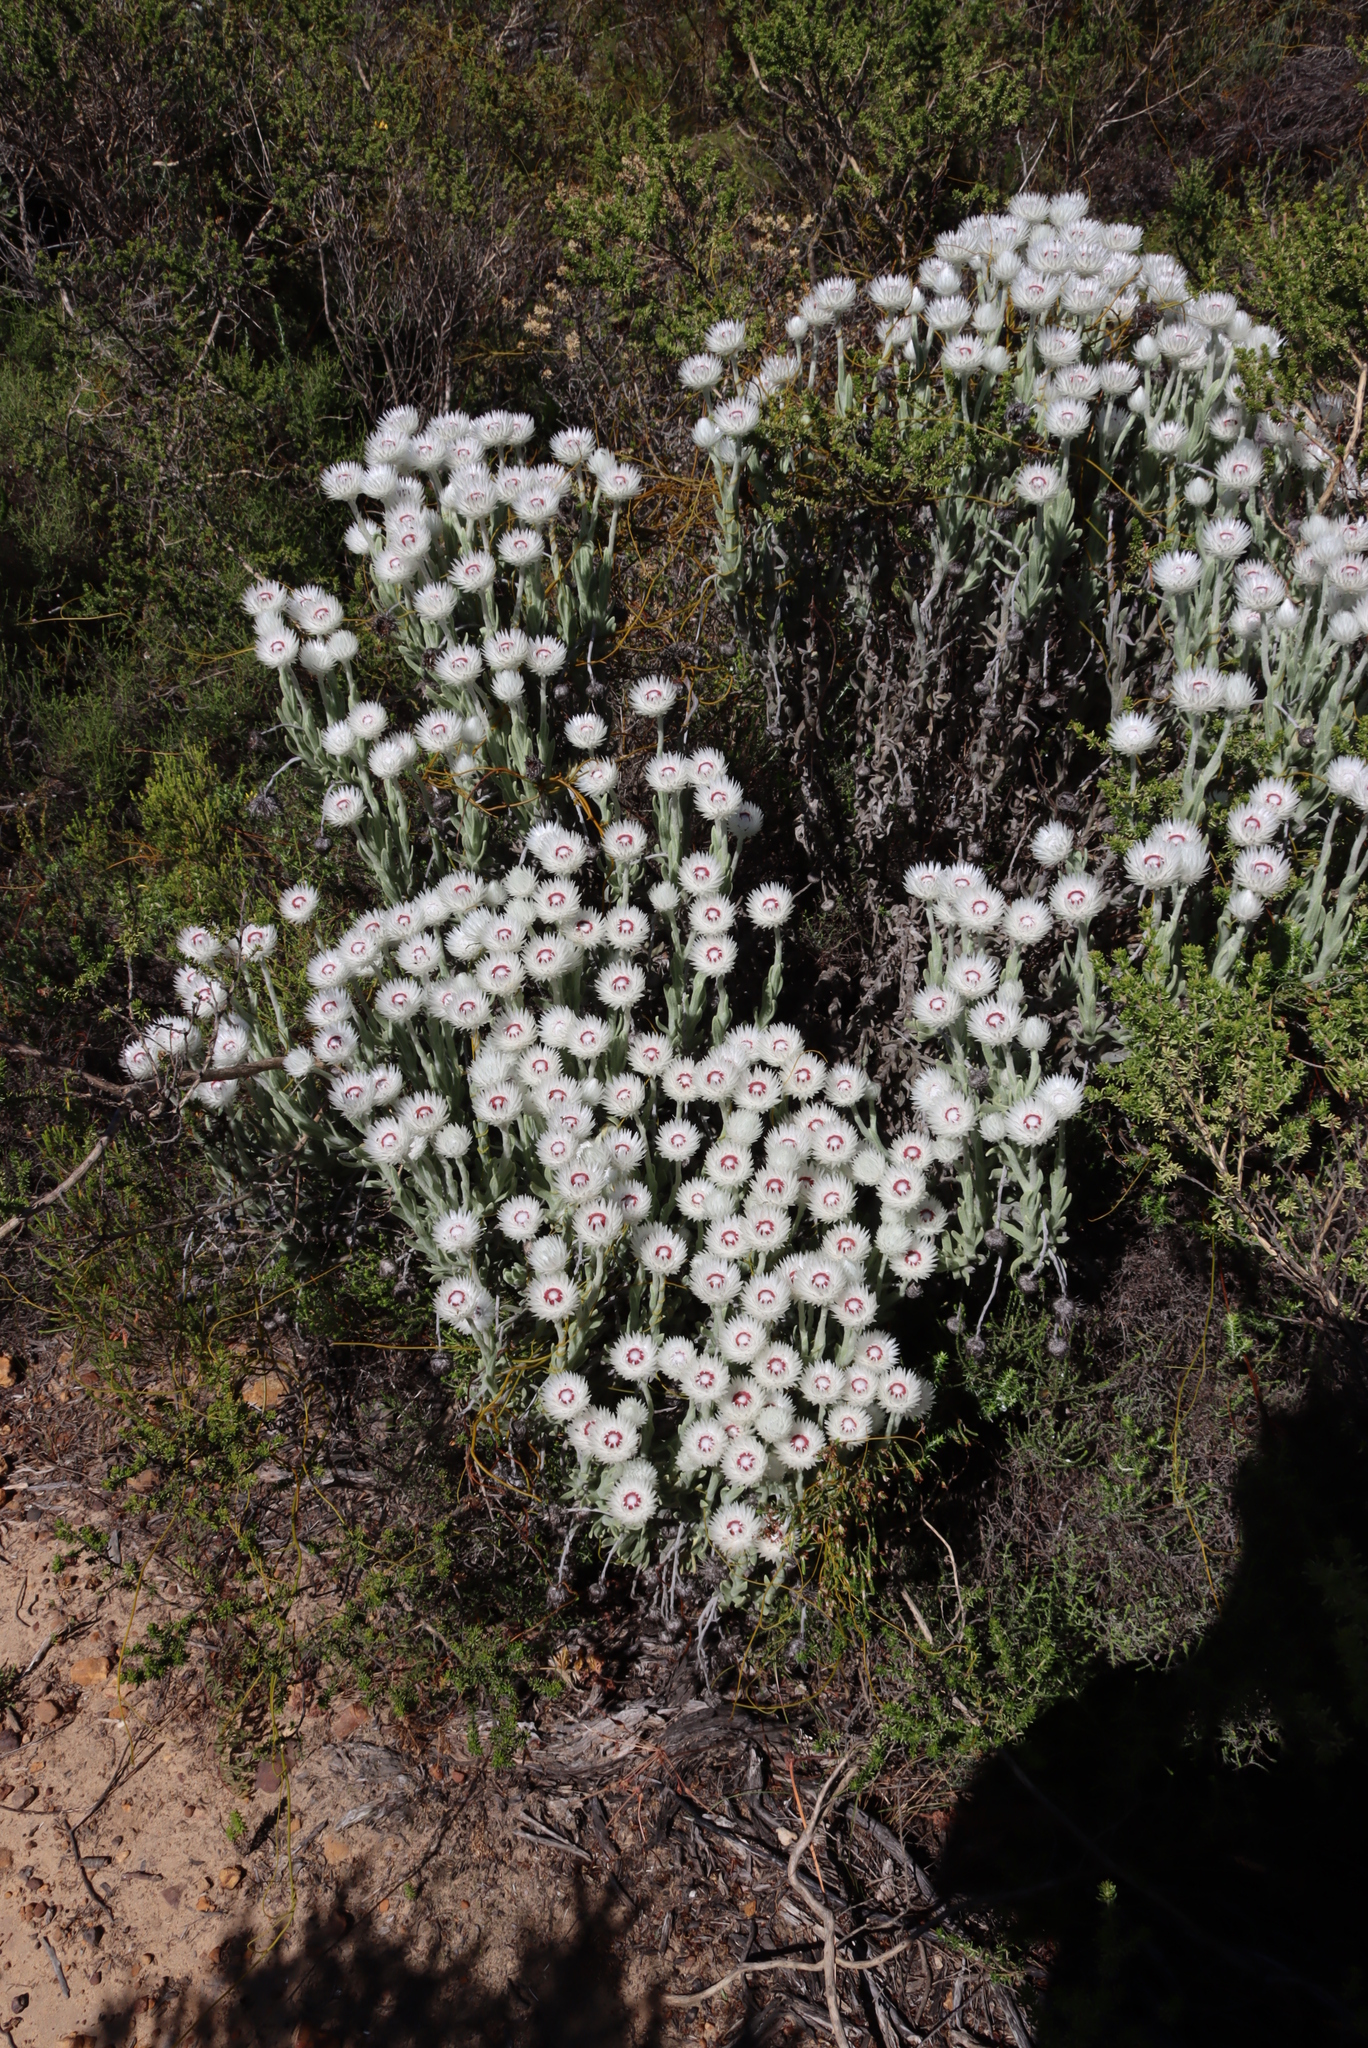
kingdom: Plantae
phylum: Tracheophyta
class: Magnoliopsida
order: Asterales
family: Asteraceae
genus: Syncarpha
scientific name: Syncarpha vestita
